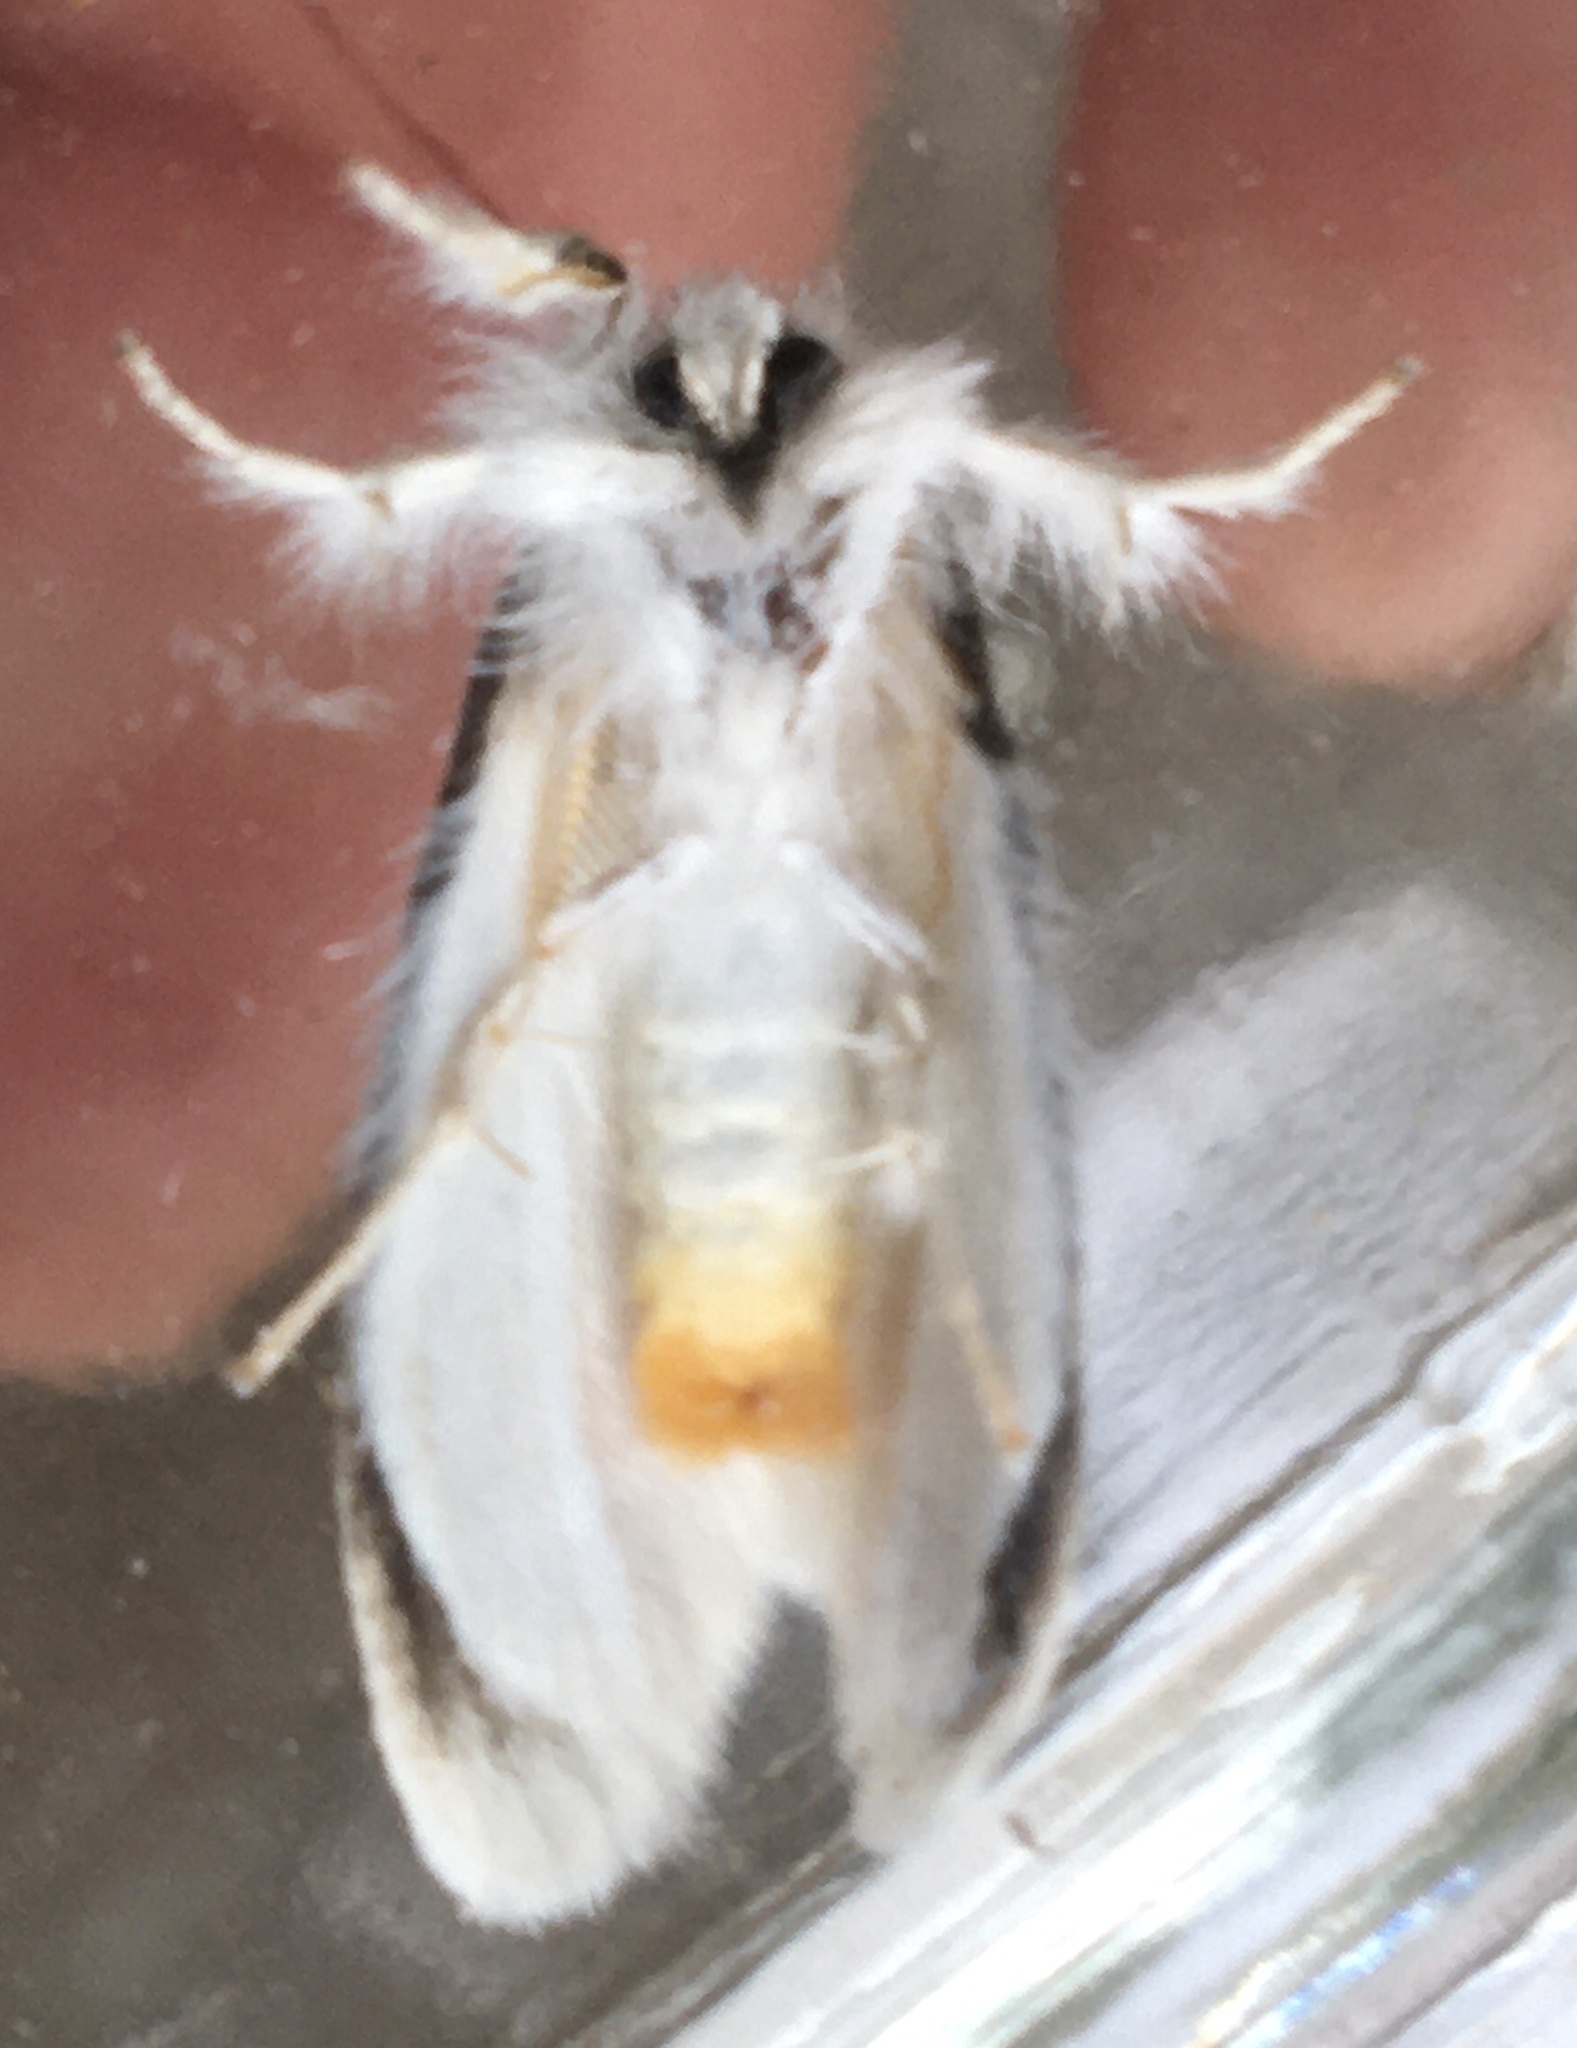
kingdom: Animalia
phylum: Arthropoda
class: Insecta
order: Lepidoptera
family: Erebidae
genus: Sphrageidus
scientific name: Sphrageidus similis
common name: Yellow-tail
